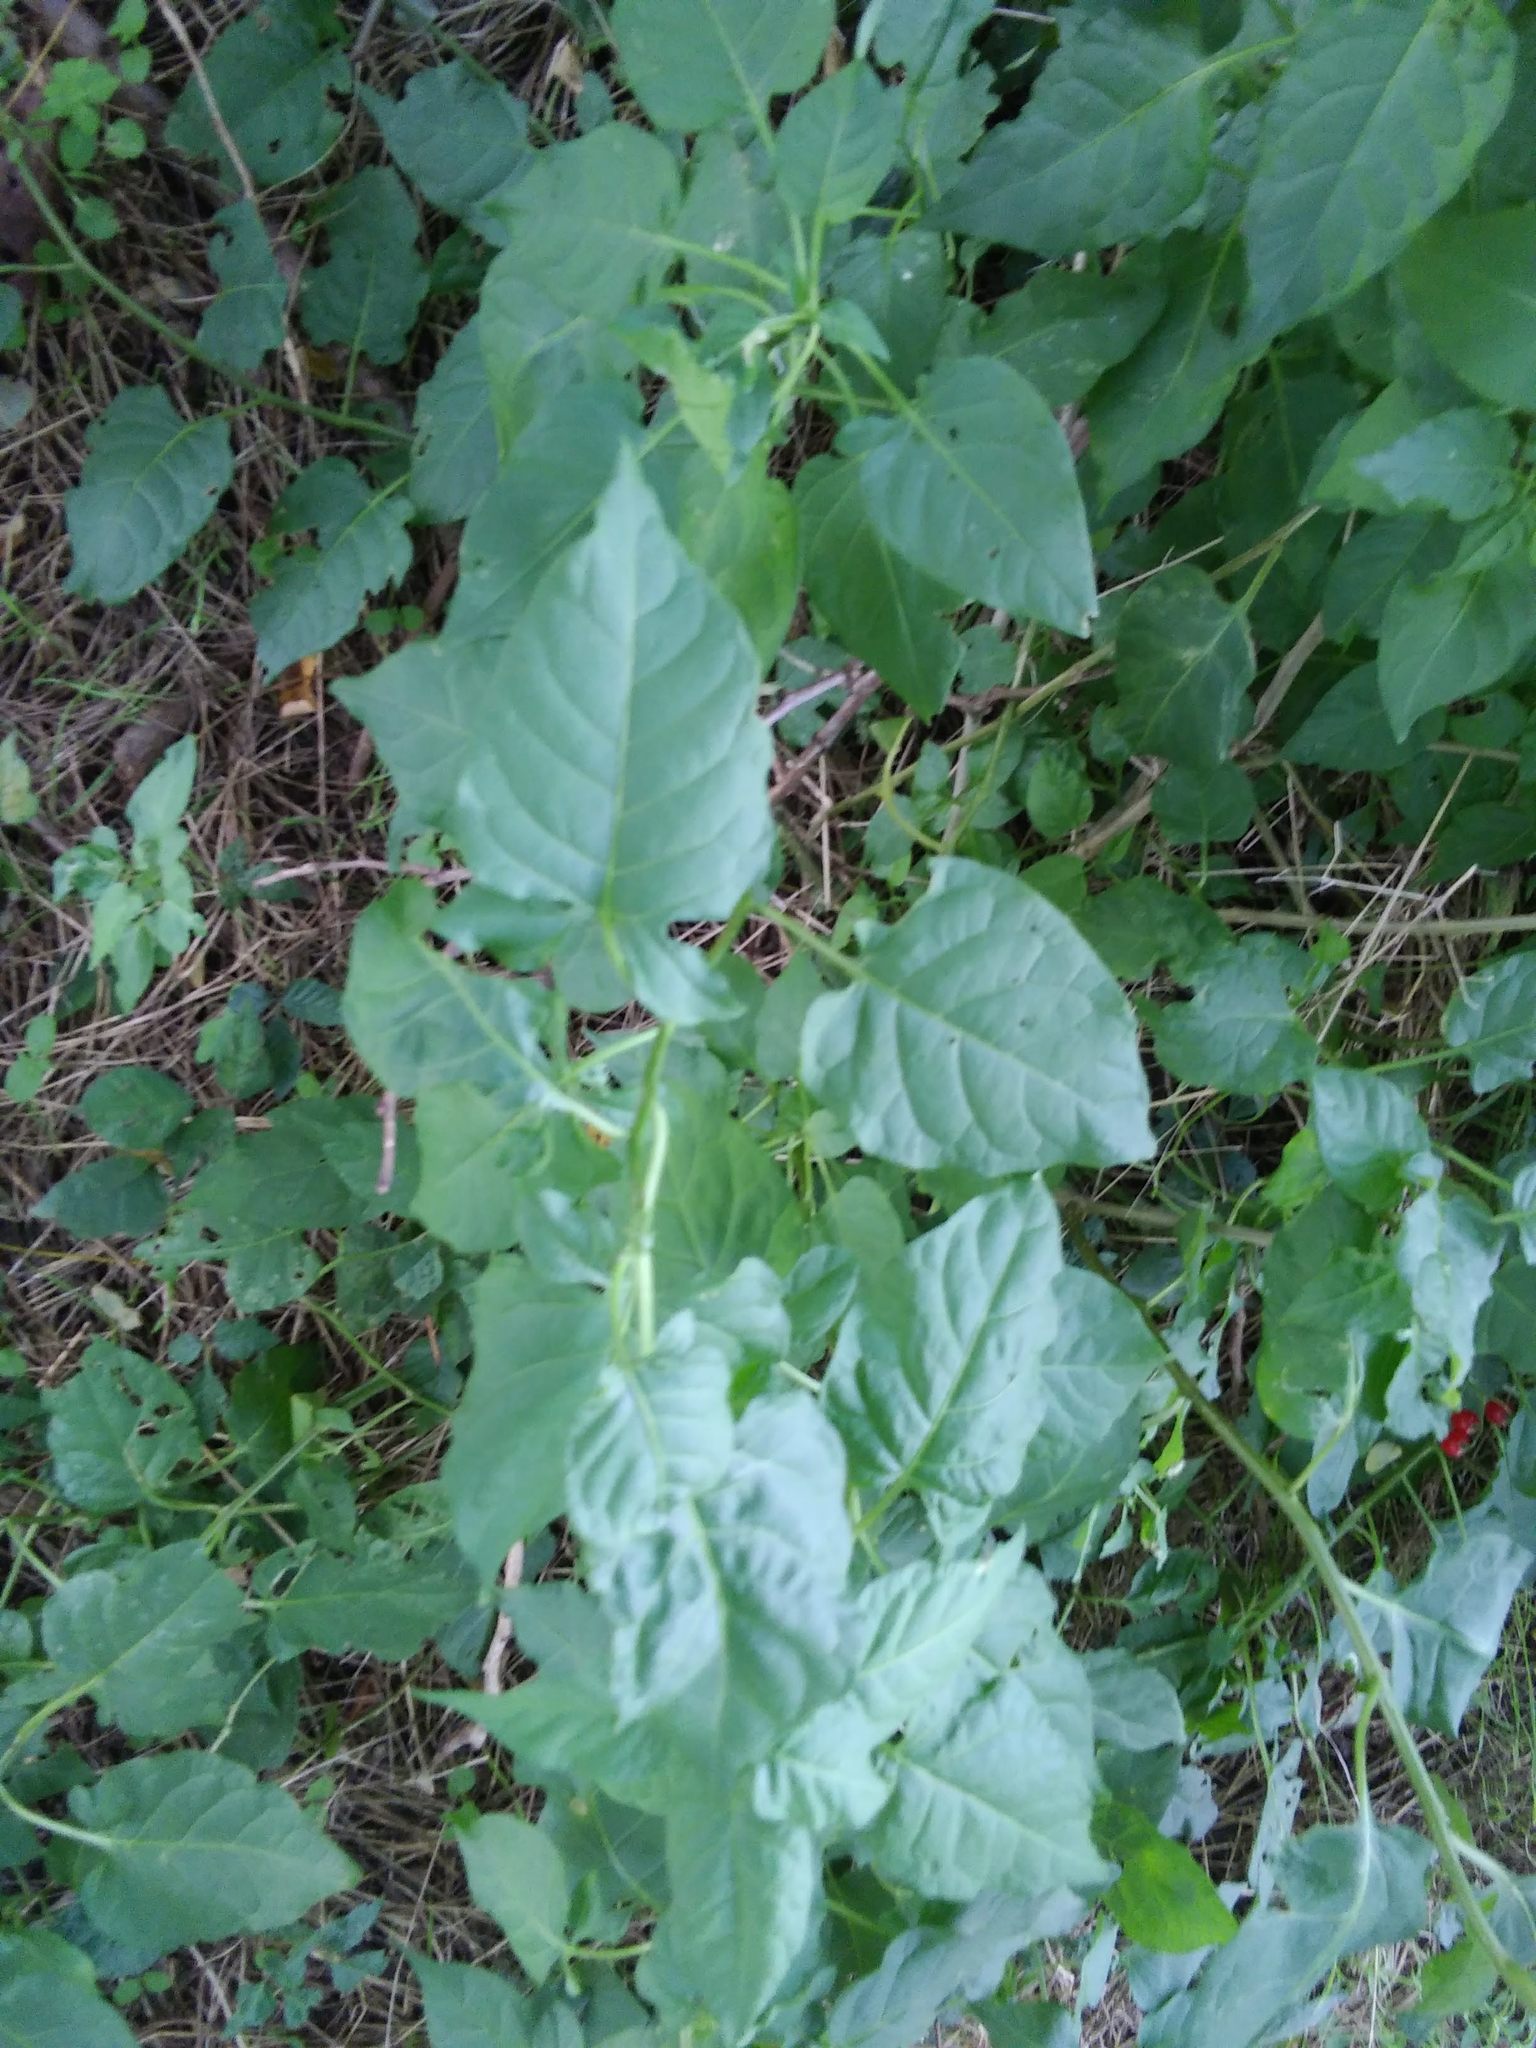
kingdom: Plantae
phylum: Tracheophyta
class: Magnoliopsida
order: Solanales
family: Solanaceae
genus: Solanum
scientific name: Solanum dulcamara
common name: Climbing nightshade
